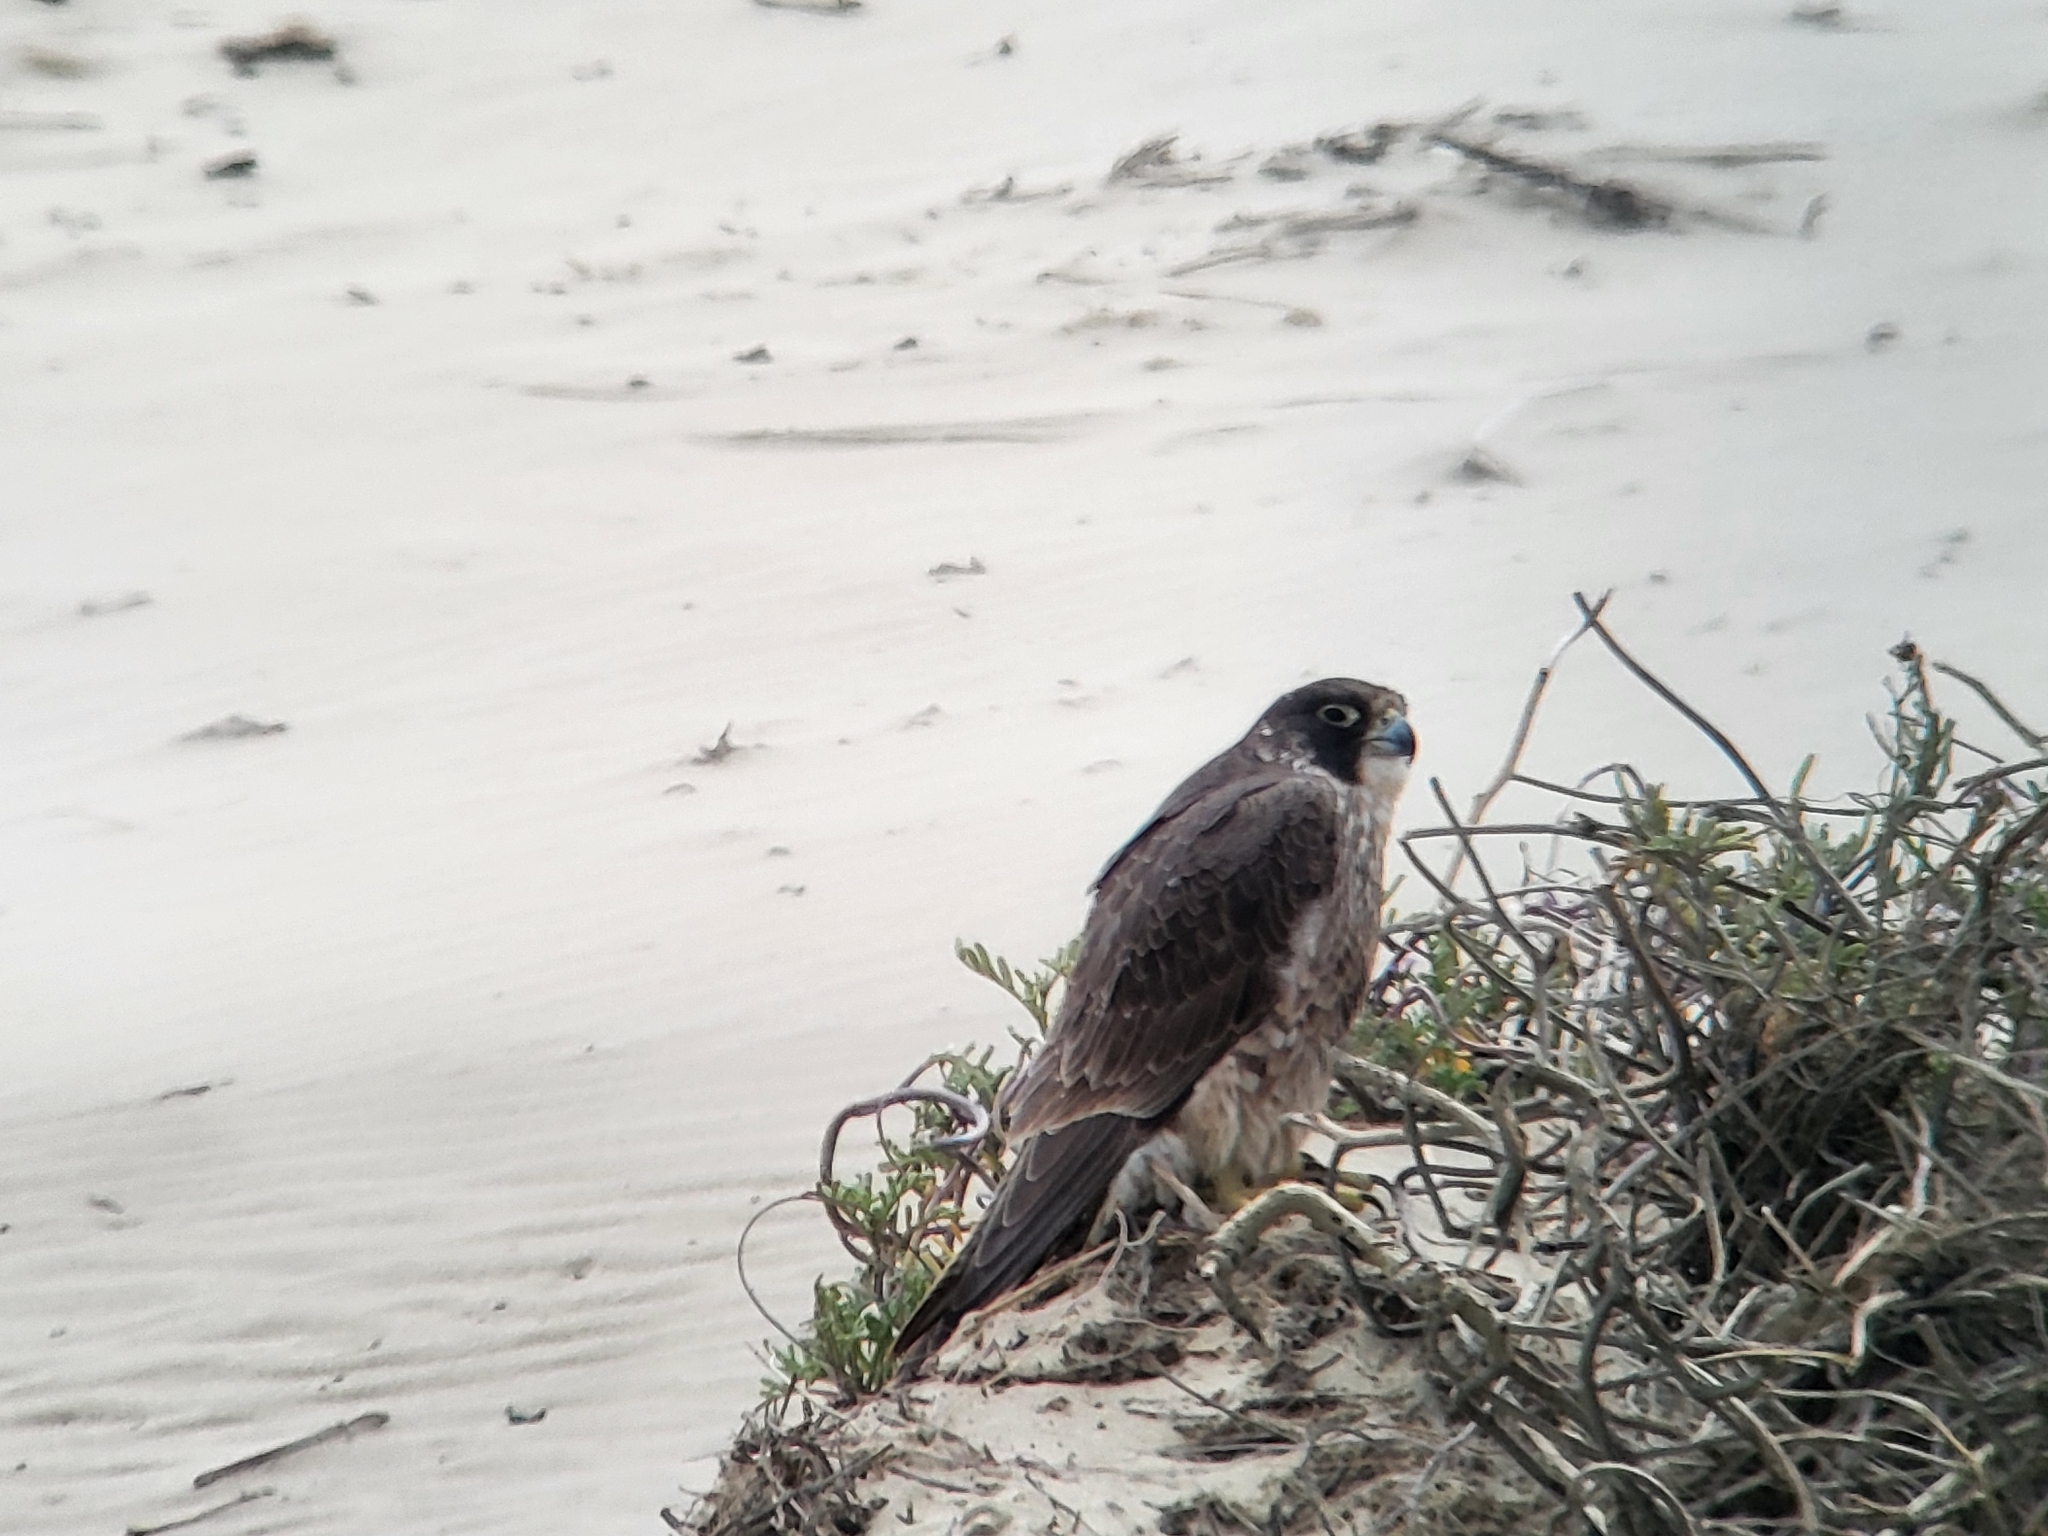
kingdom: Animalia
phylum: Chordata
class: Aves
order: Falconiformes
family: Falconidae
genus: Falco
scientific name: Falco peregrinus
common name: Peregrine falcon
